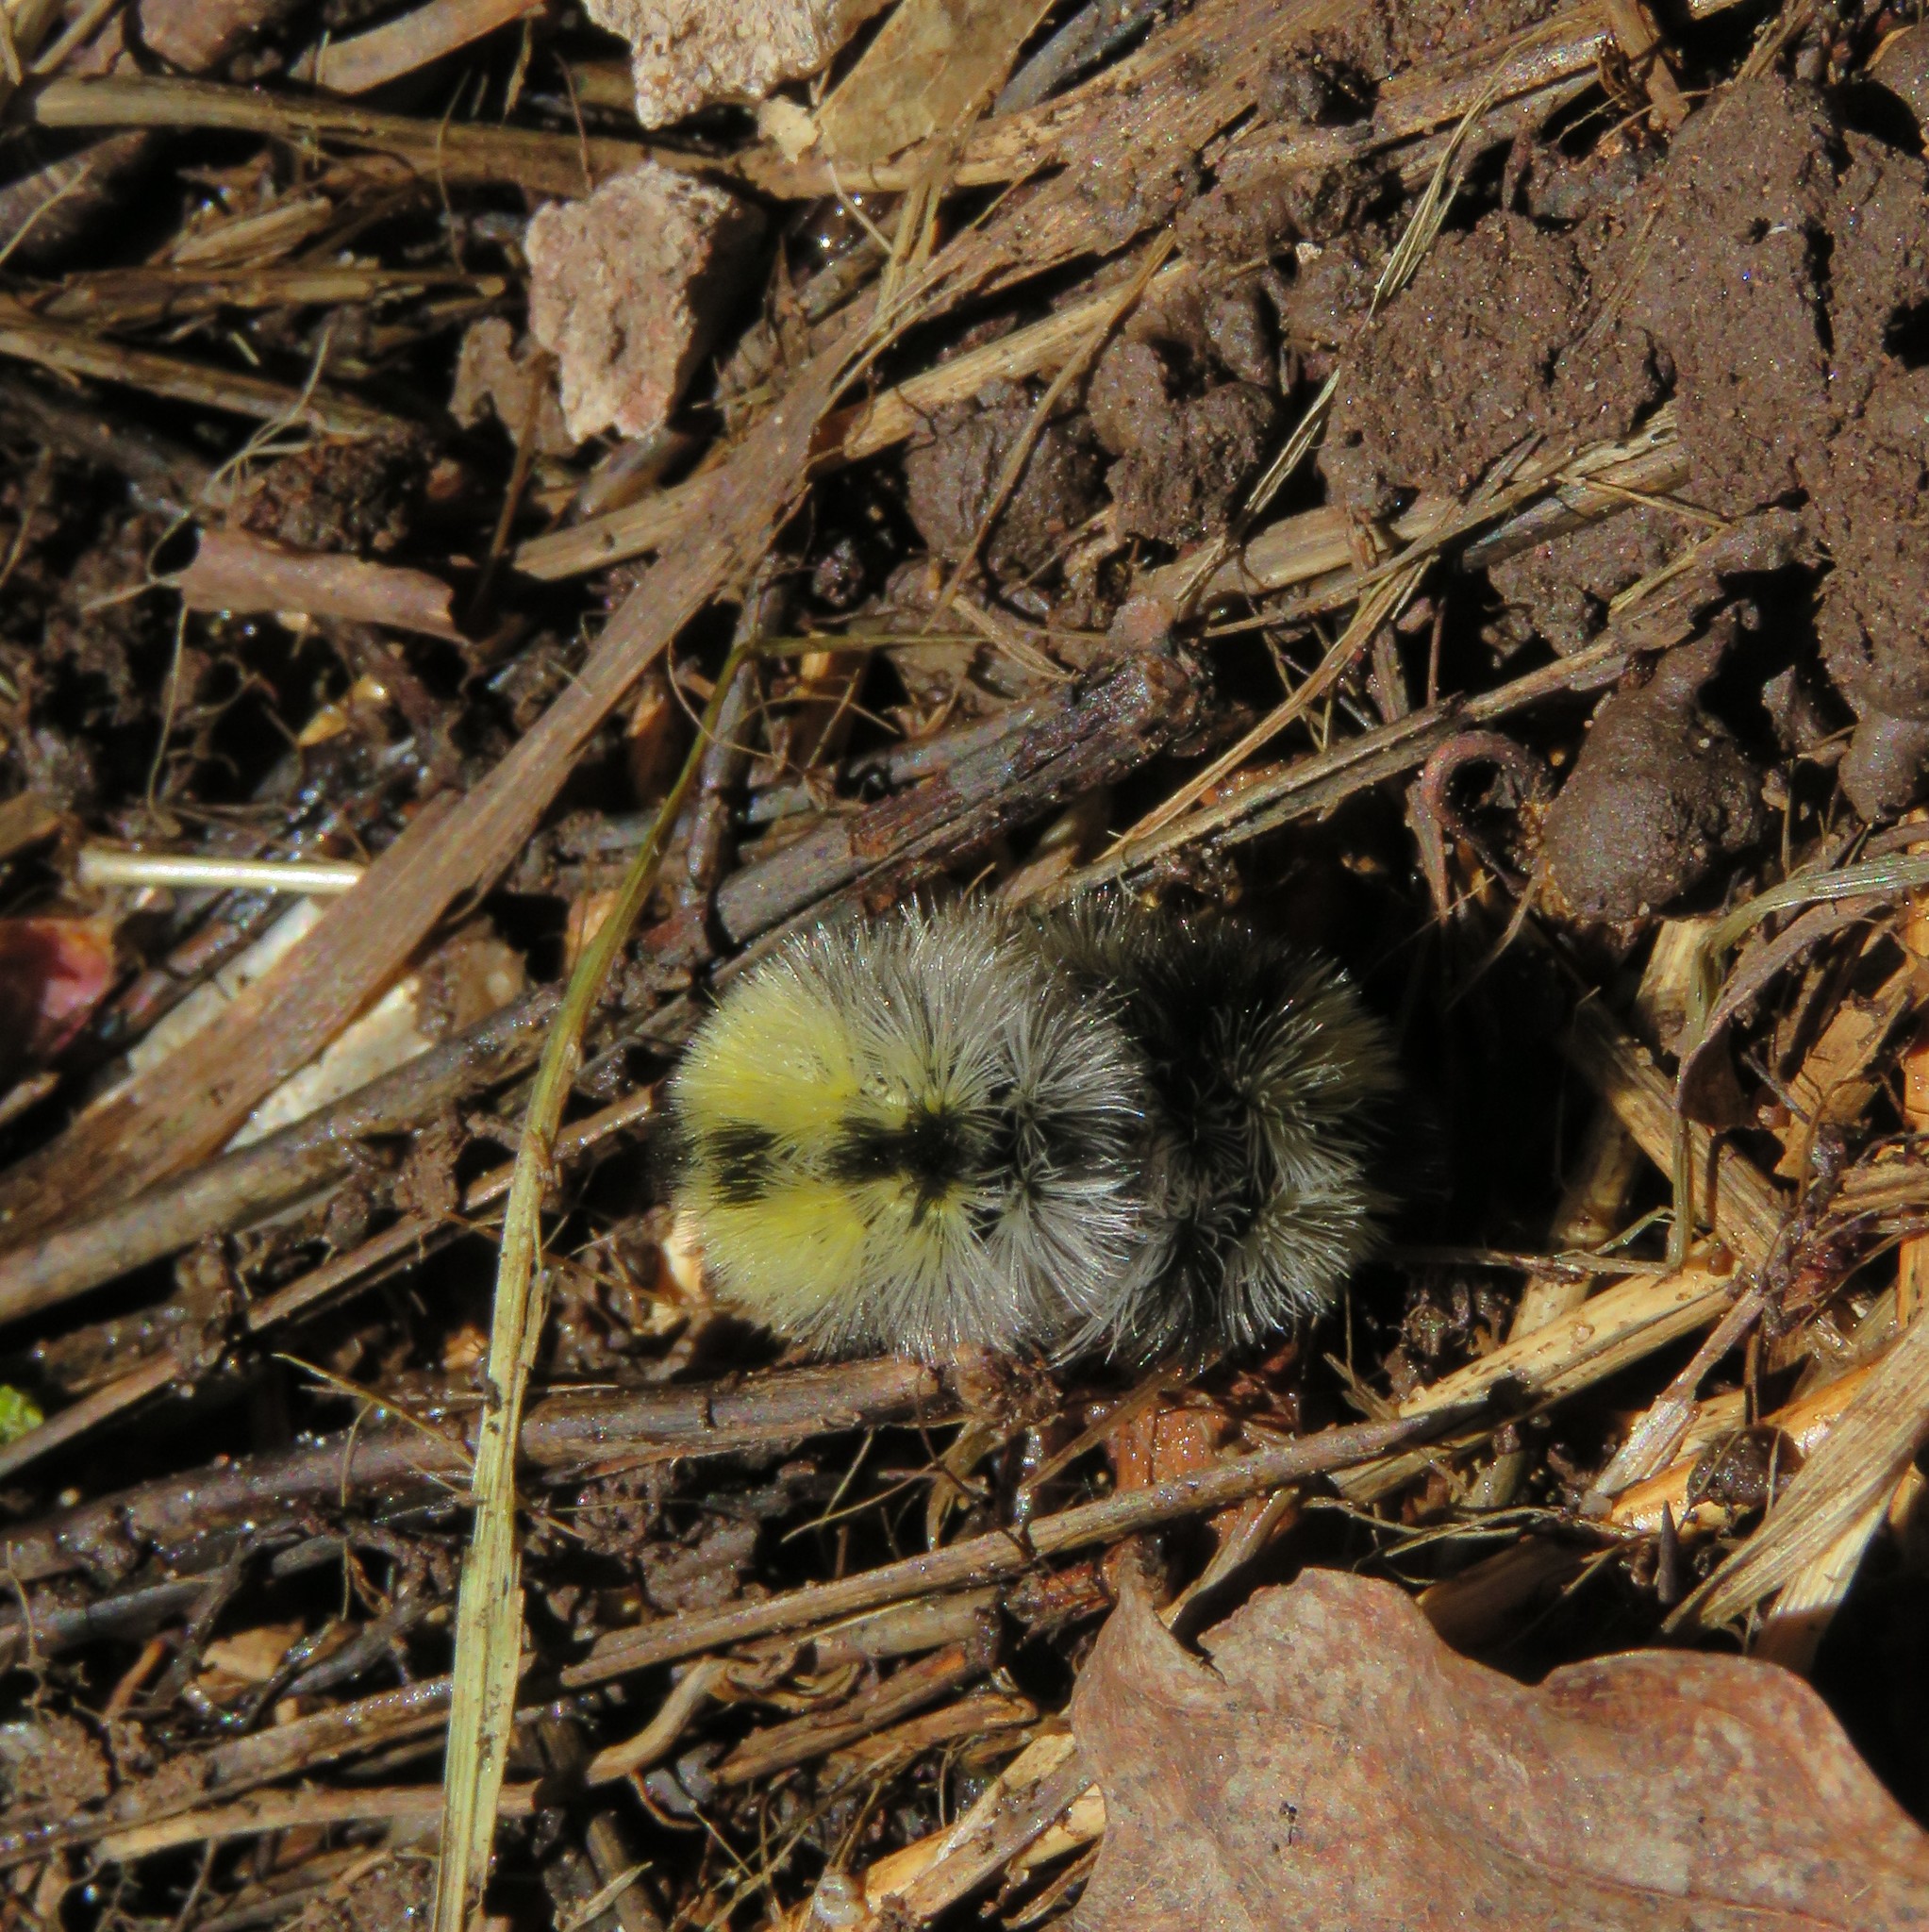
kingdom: Animalia
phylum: Arthropoda
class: Insecta
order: Lepidoptera
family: Erebidae
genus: Ctenucha
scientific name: Ctenucha virginica
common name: Virginia ctenucha moth
